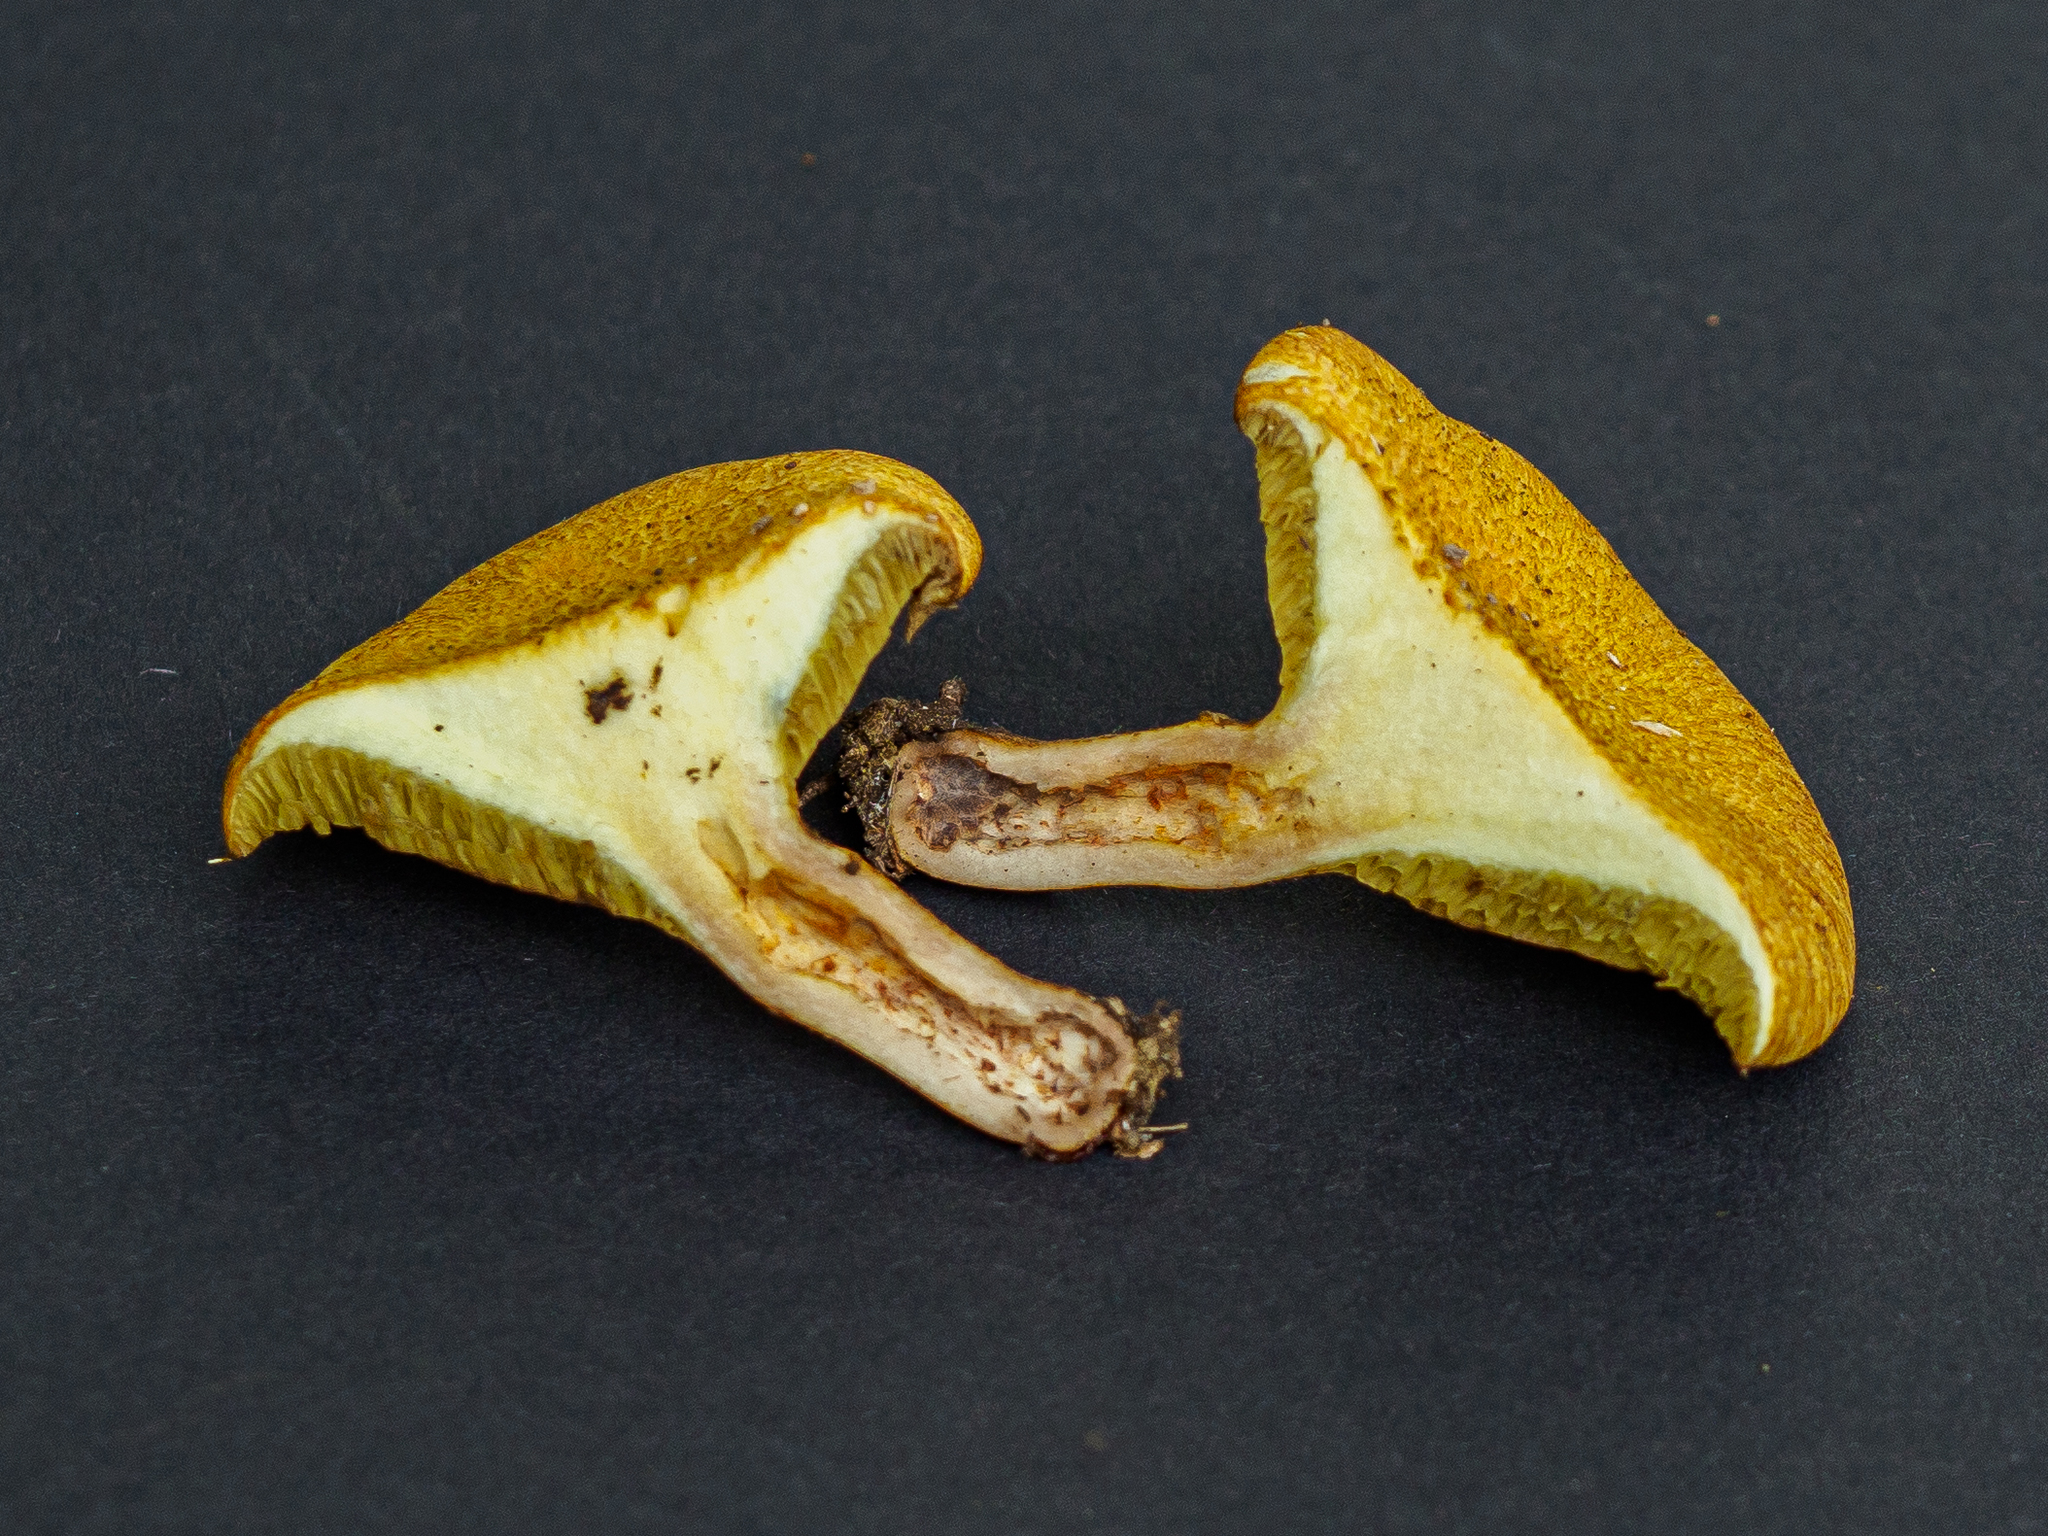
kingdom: Fungi
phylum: Basidiomycota
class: Agaricomycetes
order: Boletales
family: Suillaceae
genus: Suillus
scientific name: Suillus cavipes
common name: Hollow bolete
